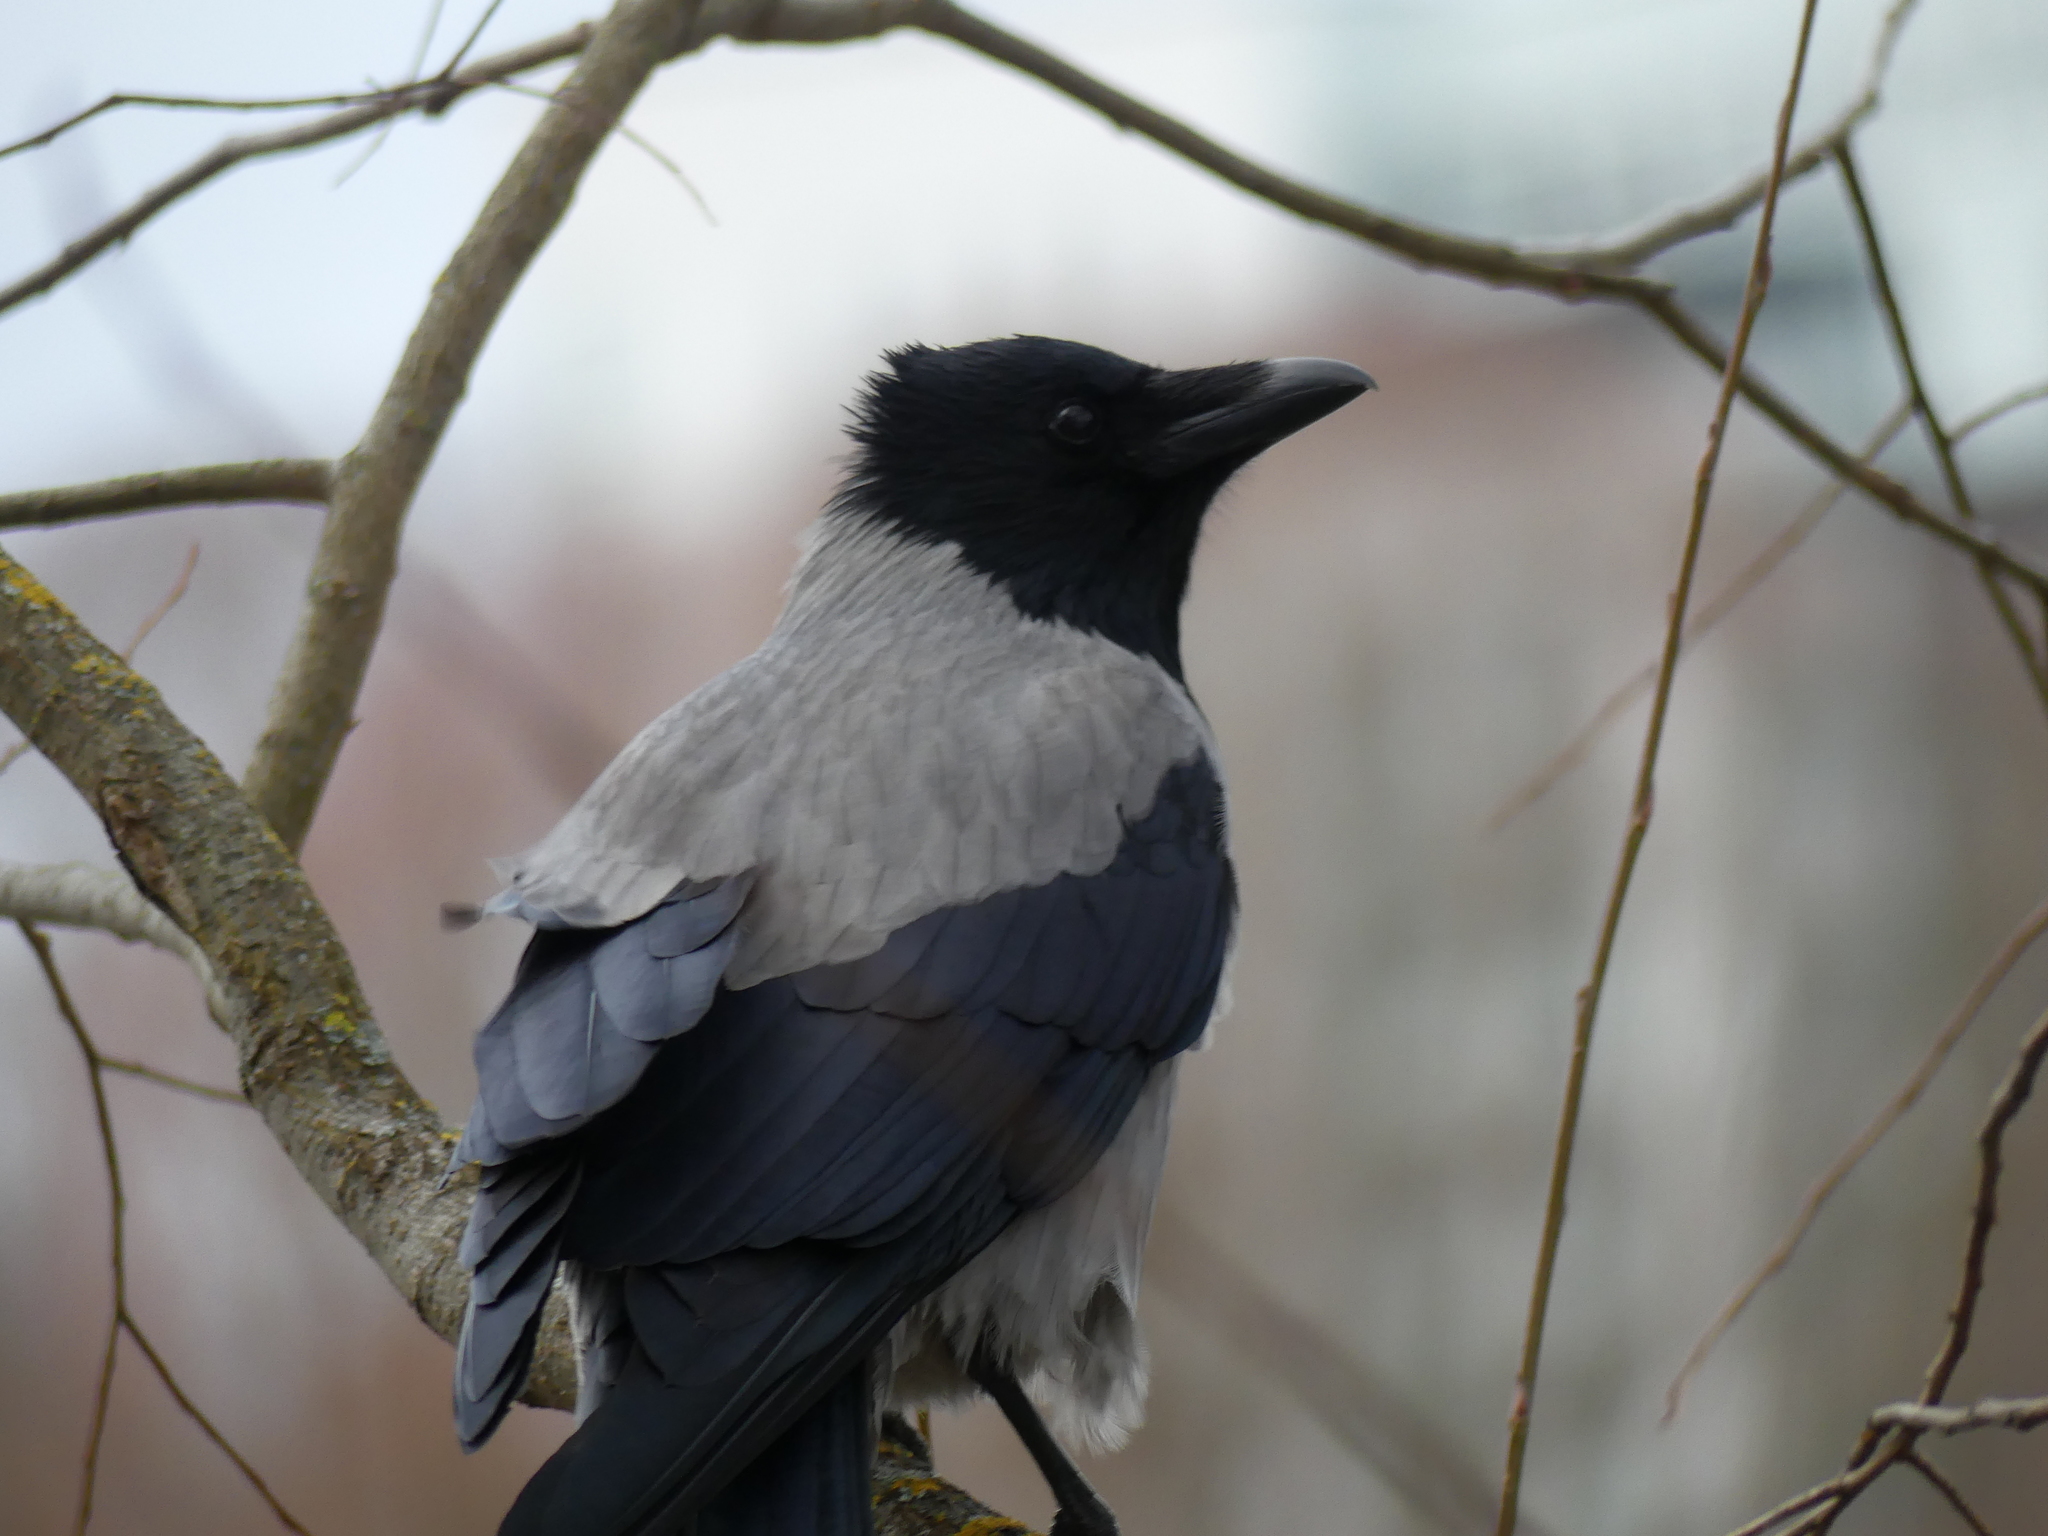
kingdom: Animalia
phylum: Chordata
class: Aves
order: Passeriformes
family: Corvidae
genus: Corvus
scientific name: Corvus cornix
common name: Hooded crow
